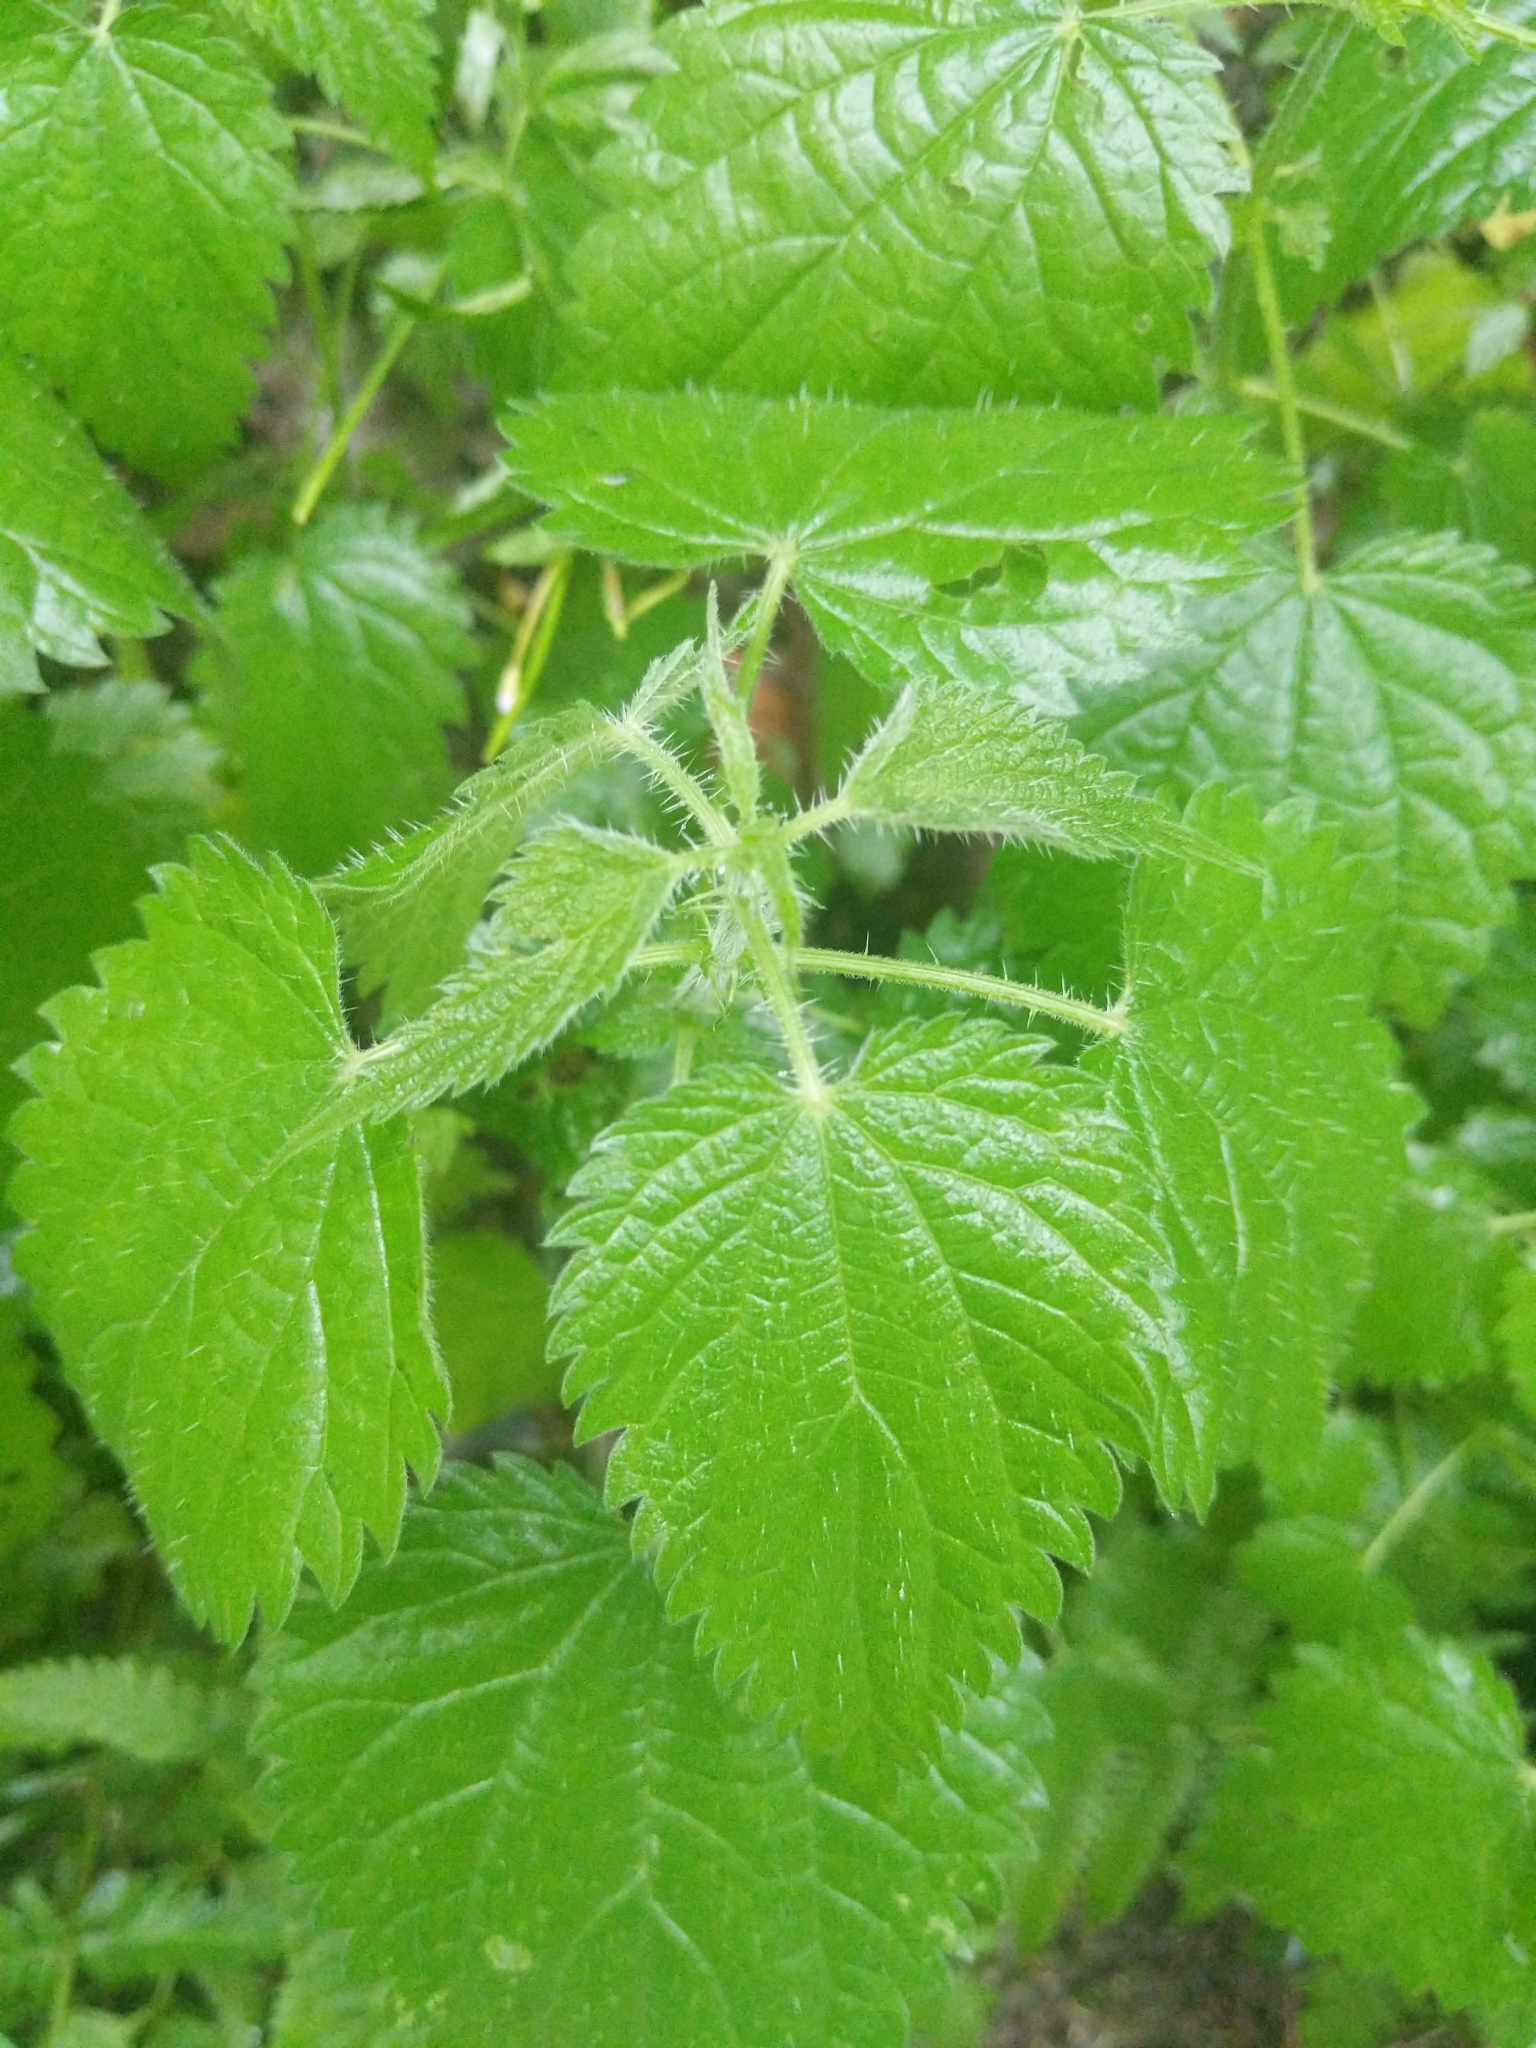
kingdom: Plantae
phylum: Tracheophyta
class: Magnoliopsida
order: Rosales
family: Urticaceae
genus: Urtica
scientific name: Urtica dioica
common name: Common nettle
